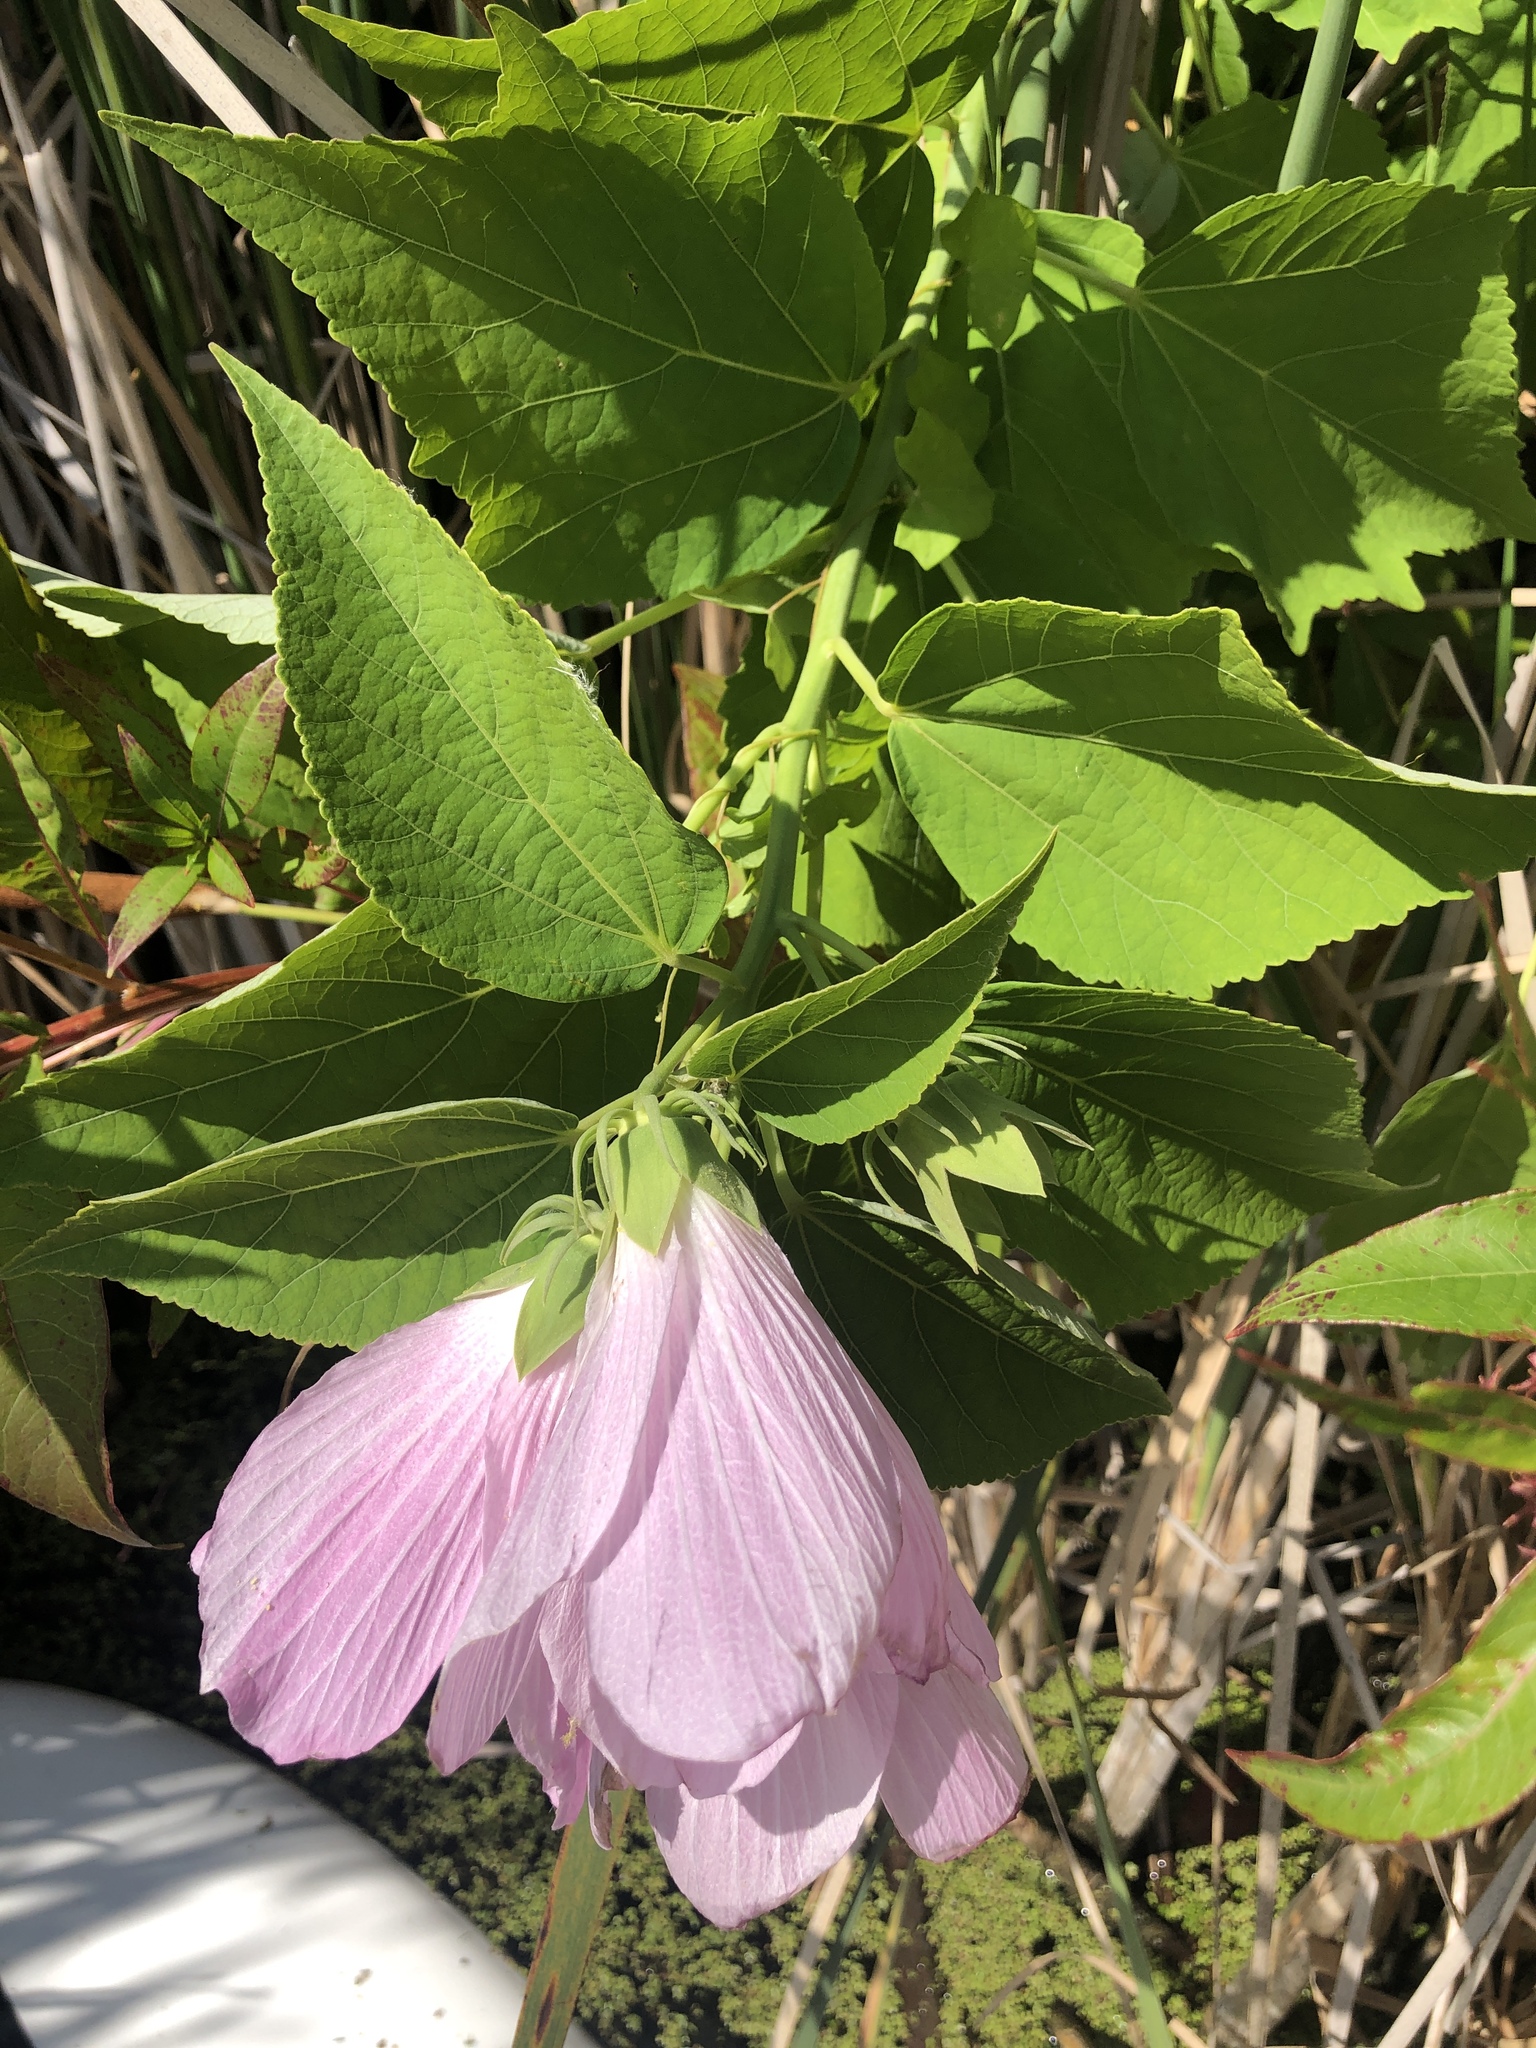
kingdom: Plantae
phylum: Tracheophyta
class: Magnoliopsida
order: Malvales
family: Malvaceae
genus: Hibiscus
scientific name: Hibiscus moscheutos
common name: Common rose-mallow
